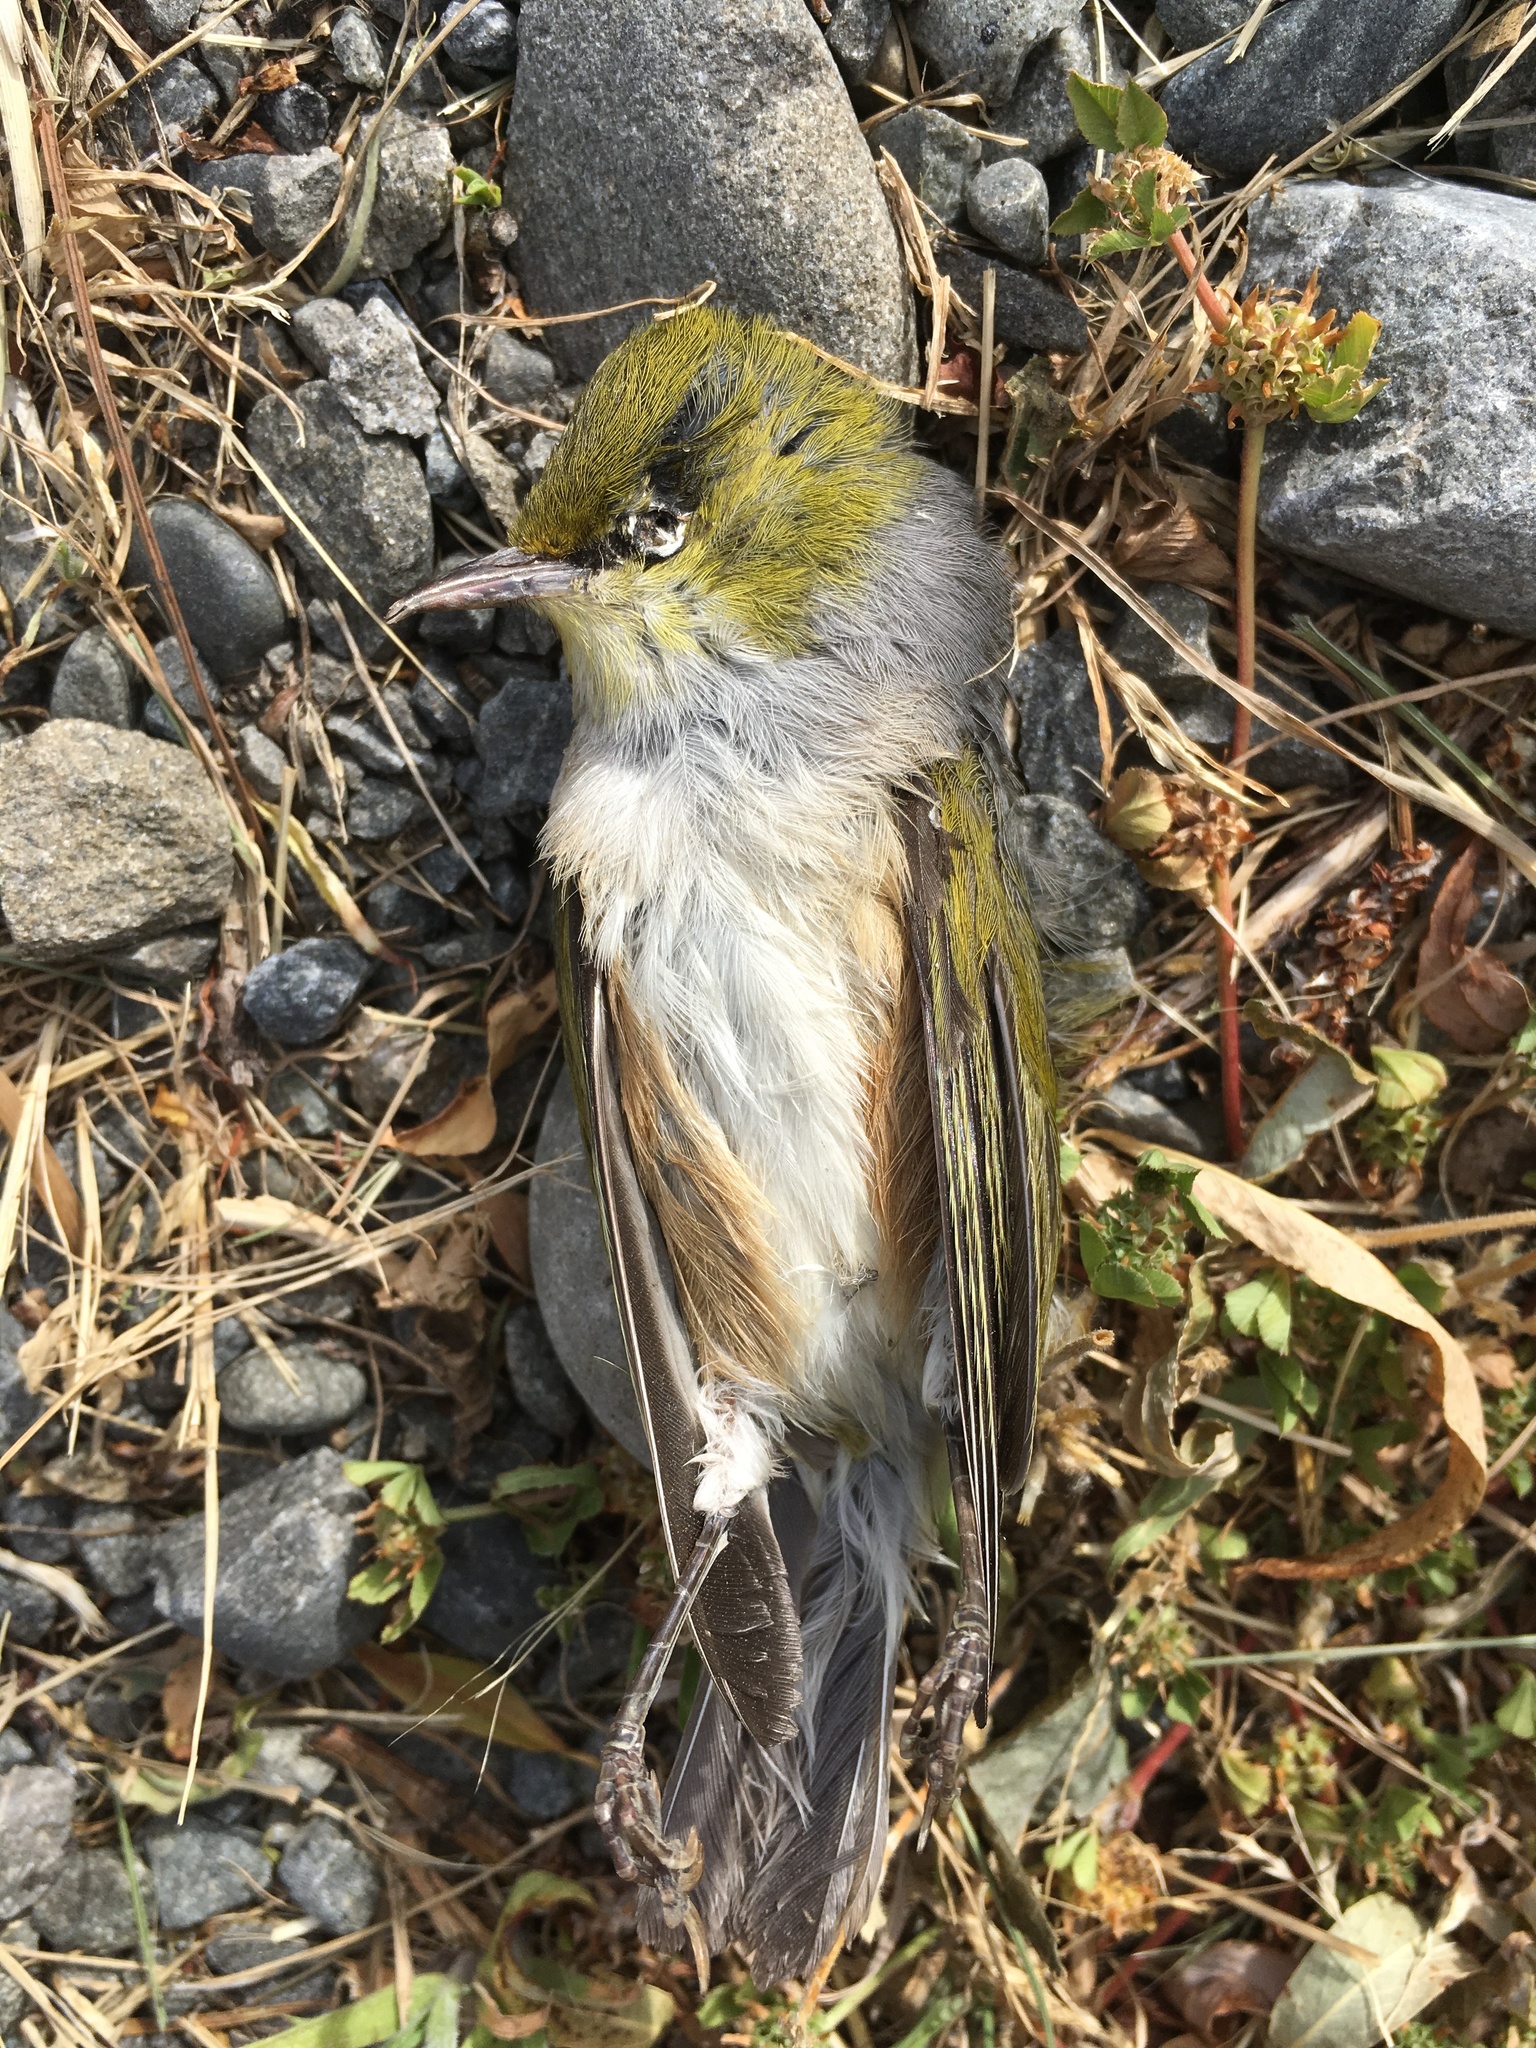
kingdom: Animalia
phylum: Chordata
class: Aves
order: Passeriformes
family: Zosteropidae
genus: Zosterops
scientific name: Zosterops lateralis
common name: Silvereye
